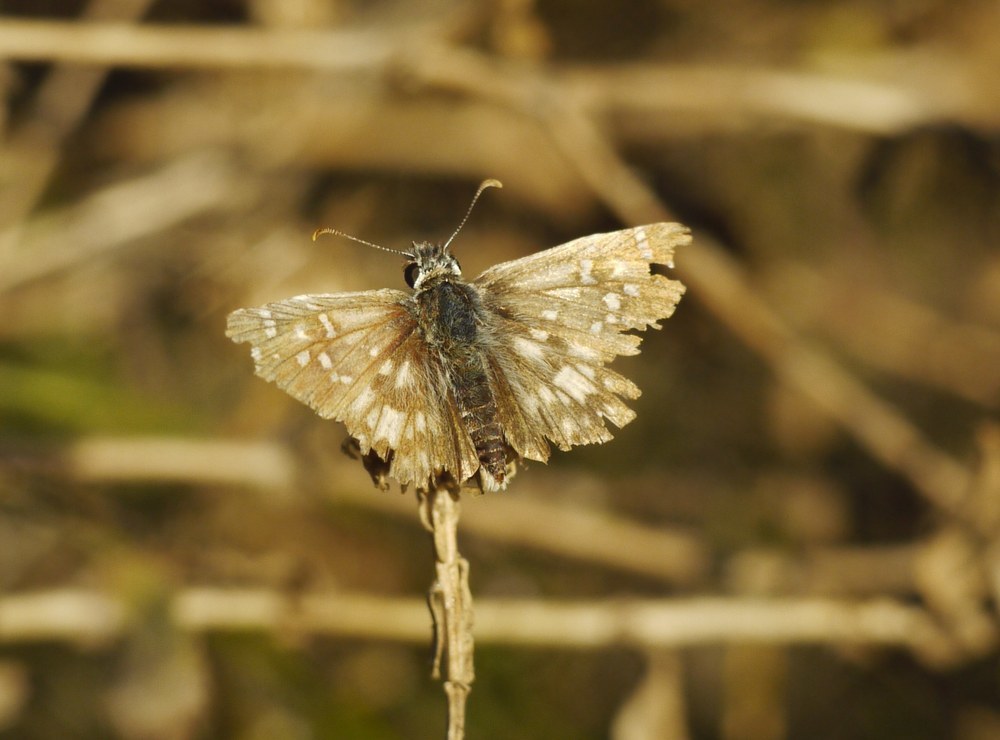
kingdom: Animalia
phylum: Arthropoda
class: Insecta
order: Lepidoptera
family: Hesperiidae
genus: Pyrgus
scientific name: Pyrgus armoricanus
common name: Oberthür's grizzled skipper
